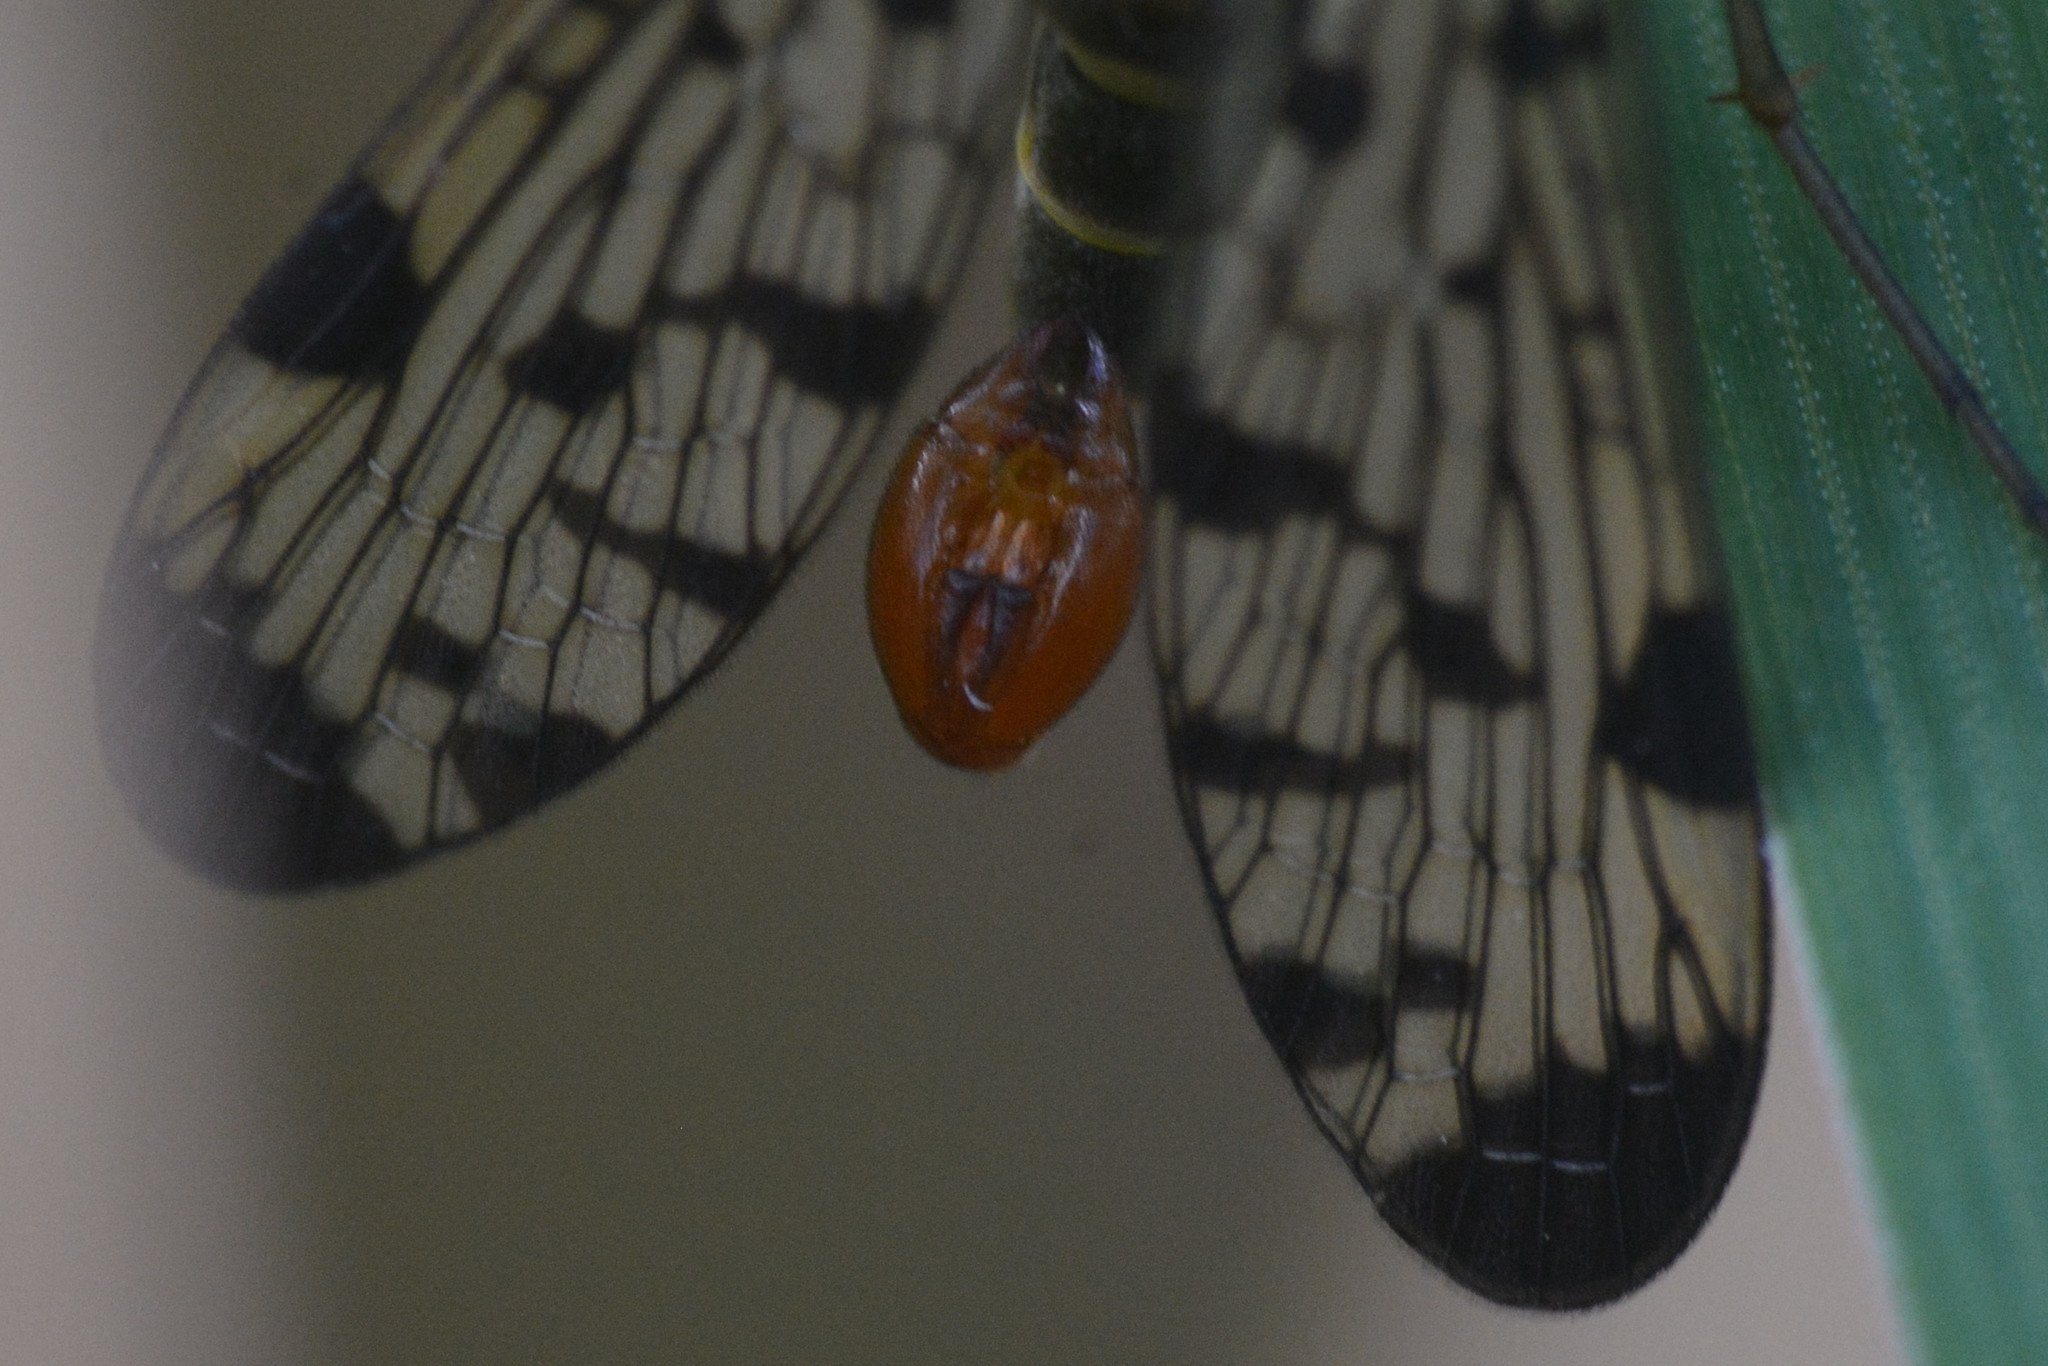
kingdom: Animalia
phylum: Arthropoda
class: Insecta
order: Mecoptera
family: Panorpidae
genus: Panorpa
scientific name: Panorpa germanica
